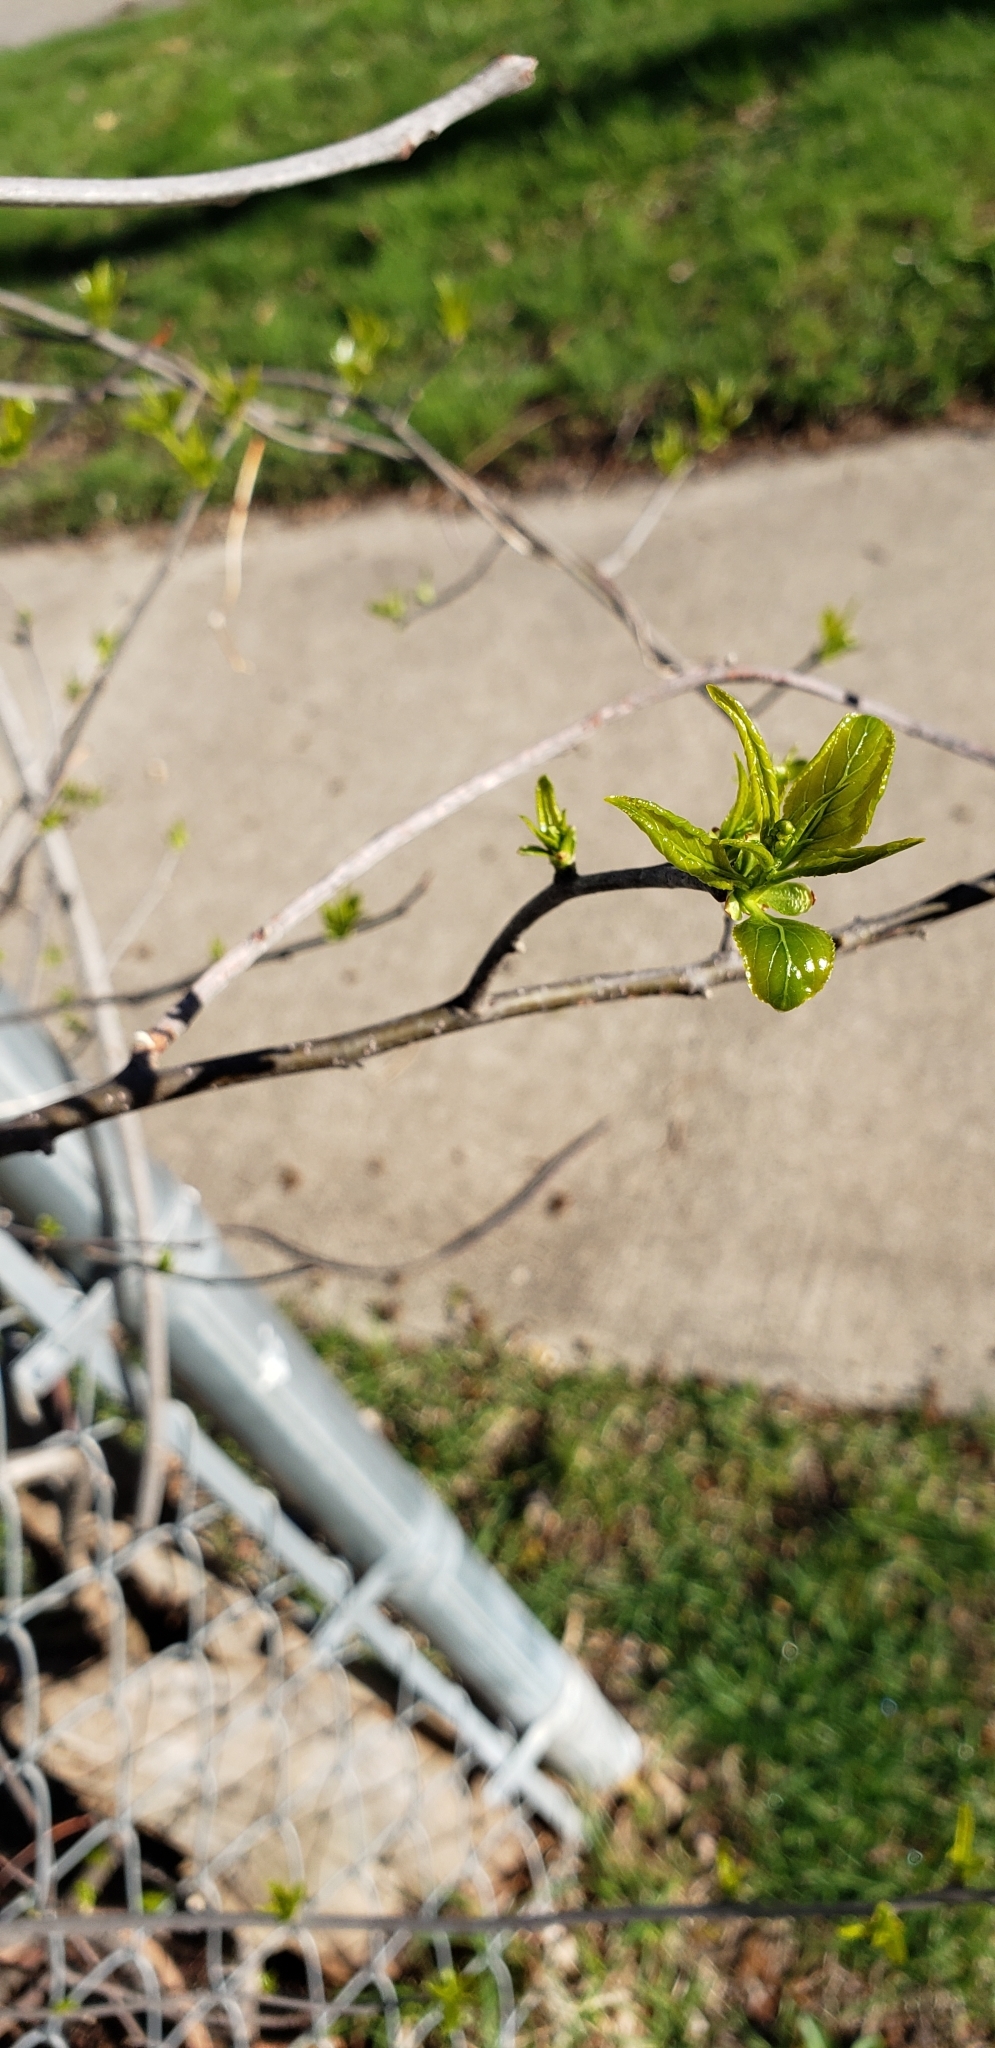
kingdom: Plantae
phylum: Tracheophyta
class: Magnoliopsida
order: Celastrales
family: Celastraceae
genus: Celastrus
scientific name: Celastrus scandens
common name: American bittersweet
